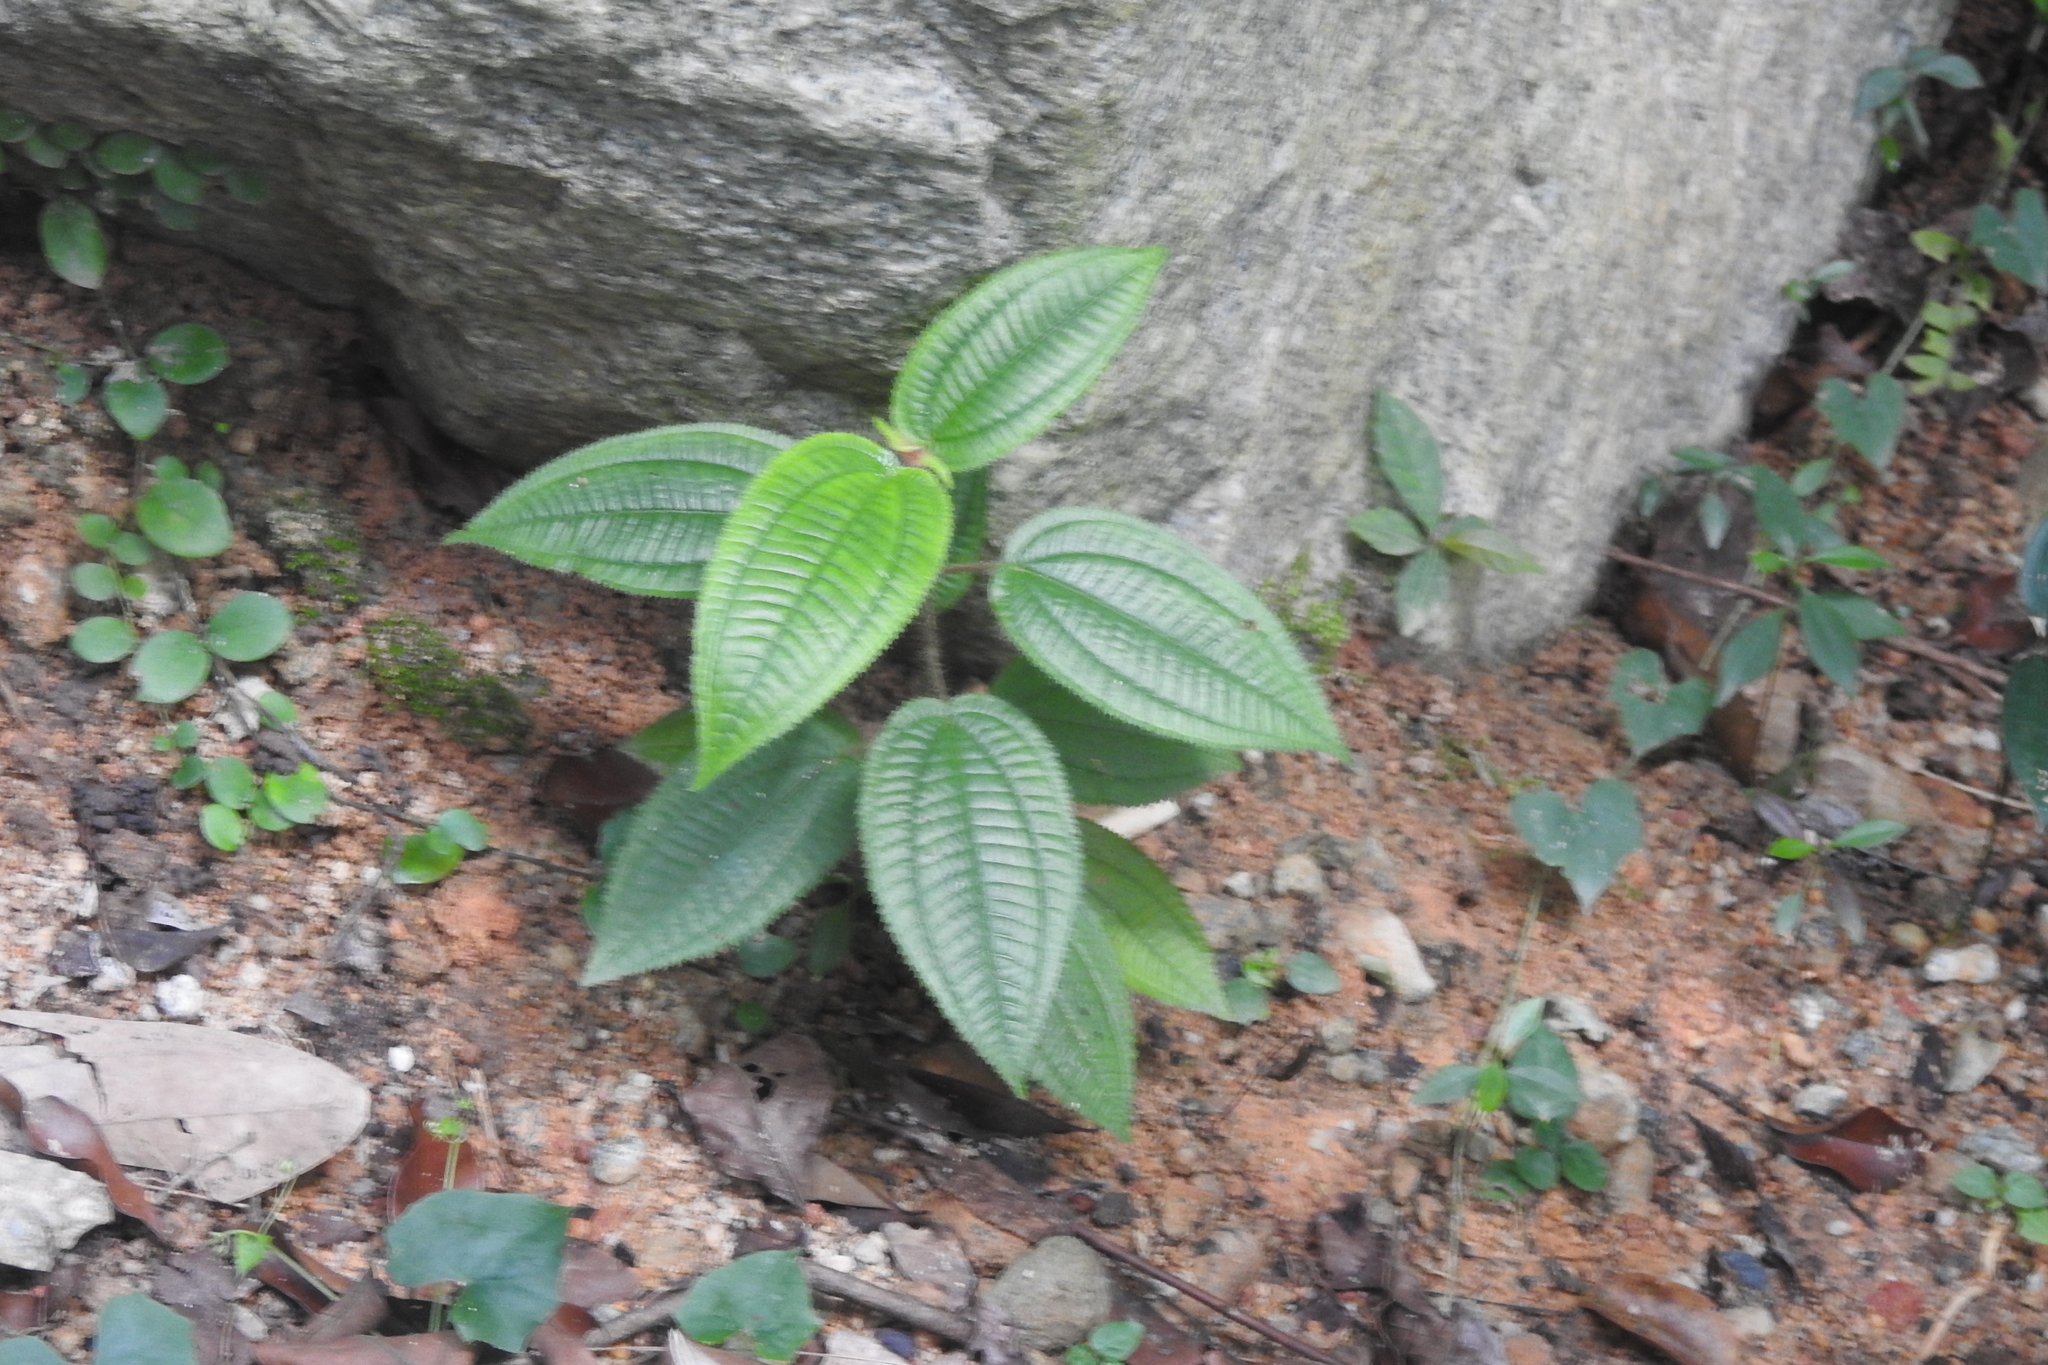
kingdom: Plantae
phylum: Tracheophyta
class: Magnoliopsida
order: Myrtales
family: Melastomataceae
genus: Miconia
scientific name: Miconia crenata
